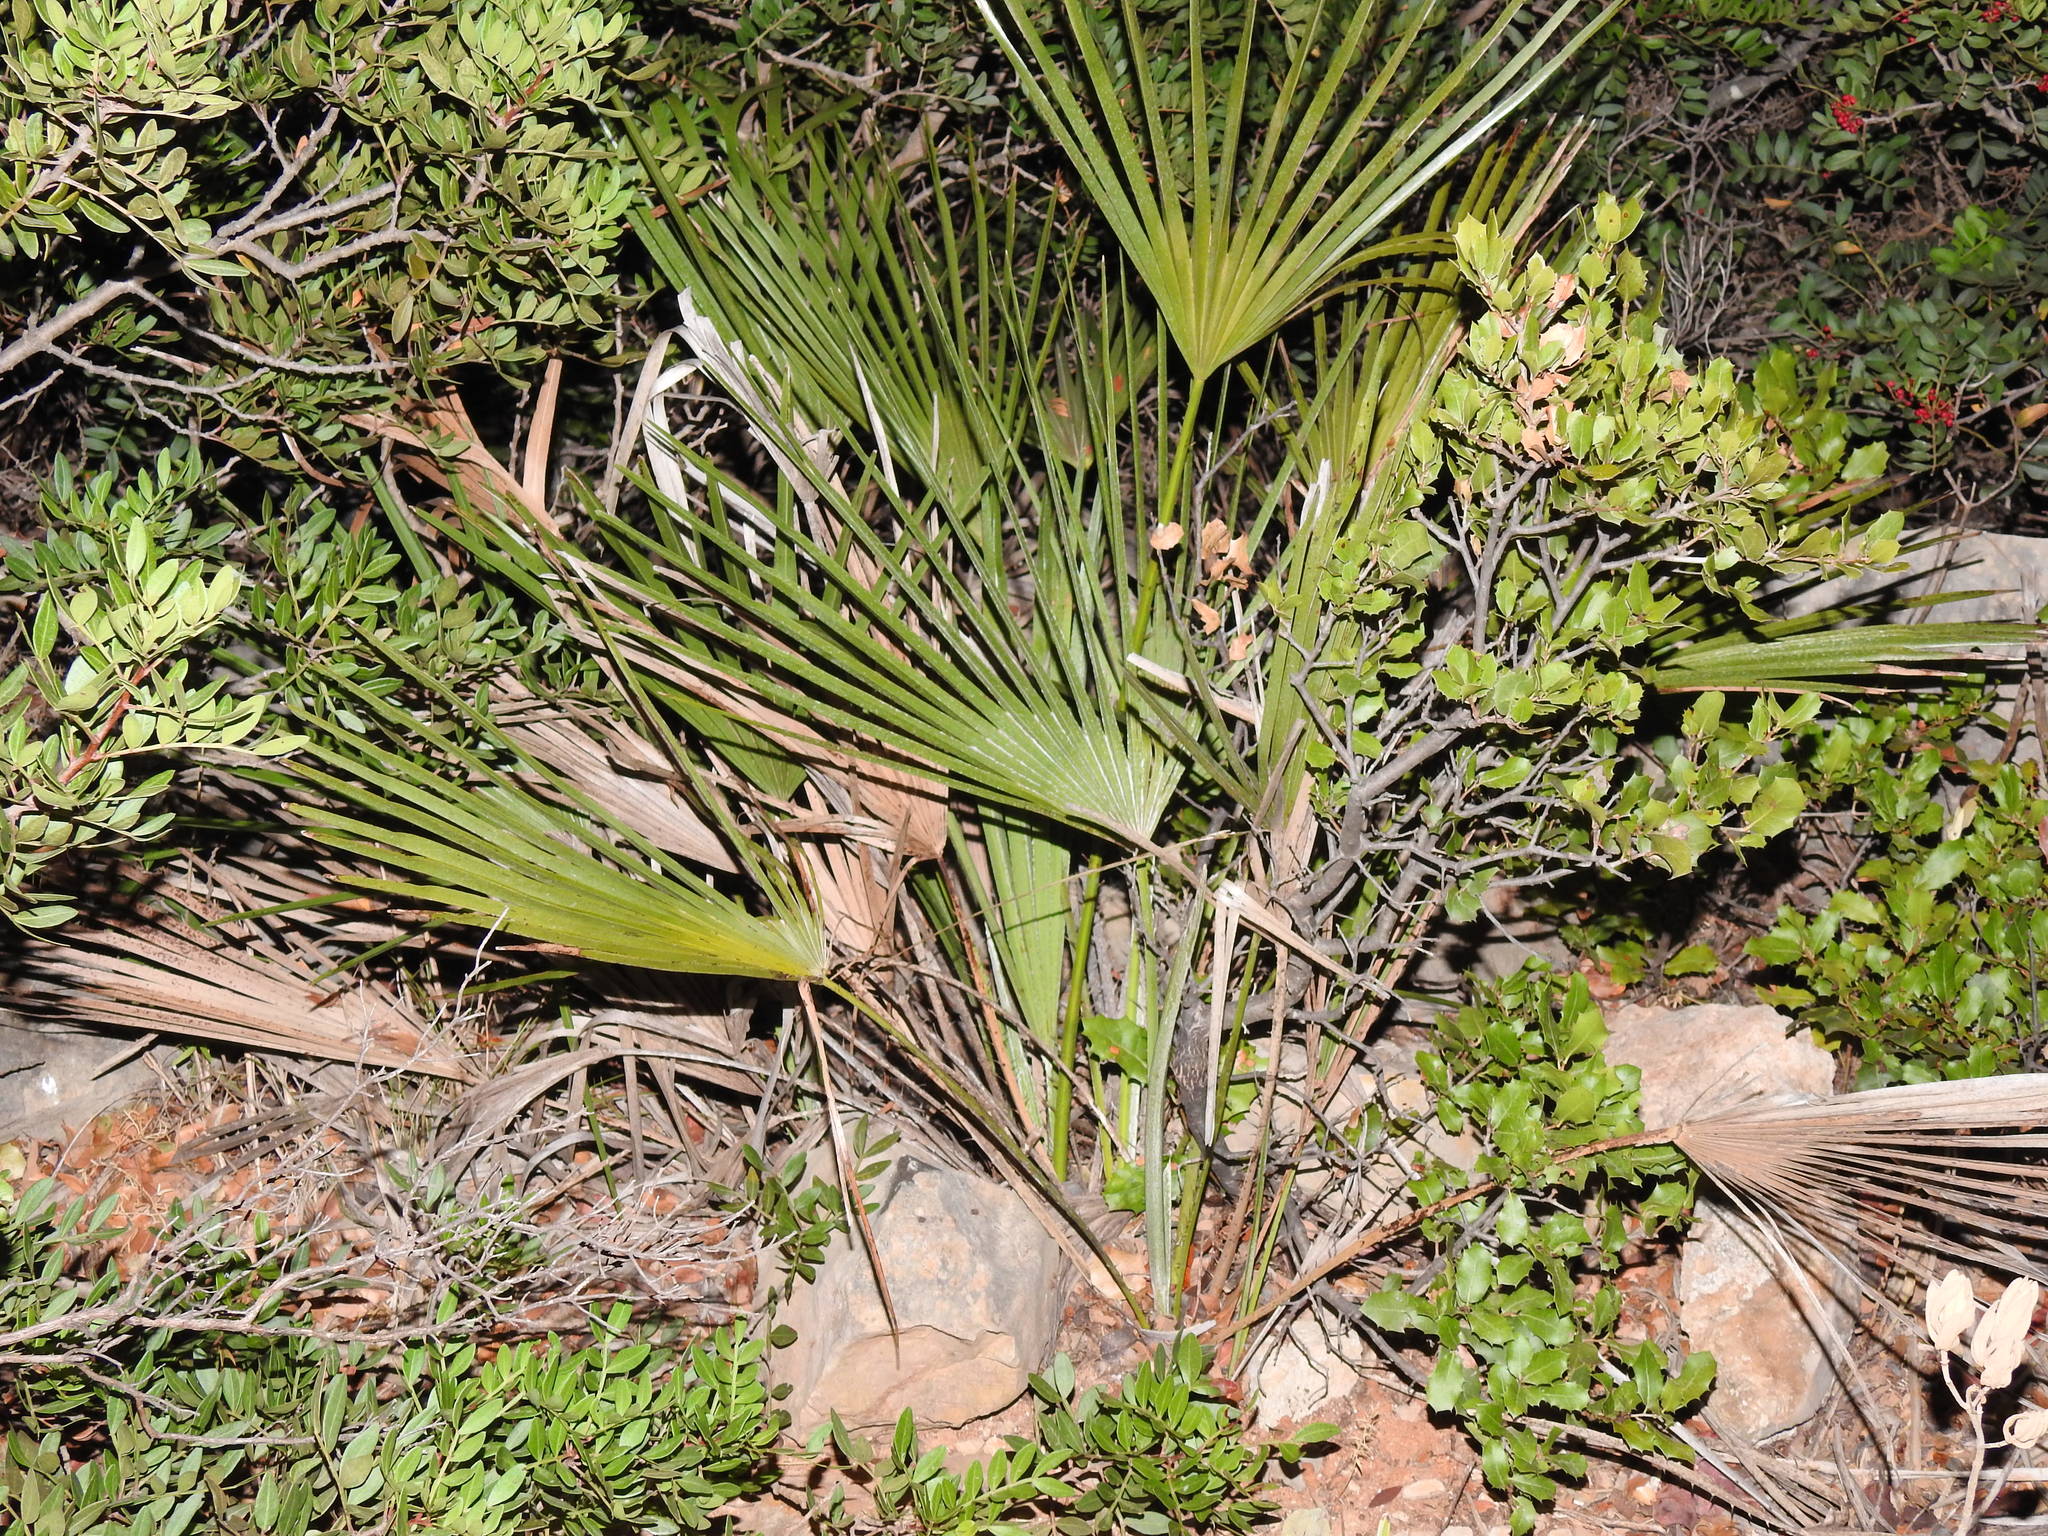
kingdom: Plantae
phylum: Tracheophyta
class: Liliopsida
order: Arecales
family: Arecaceae
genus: Chamaerops
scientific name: Chamaerops humilis
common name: Dwarf fan palm
